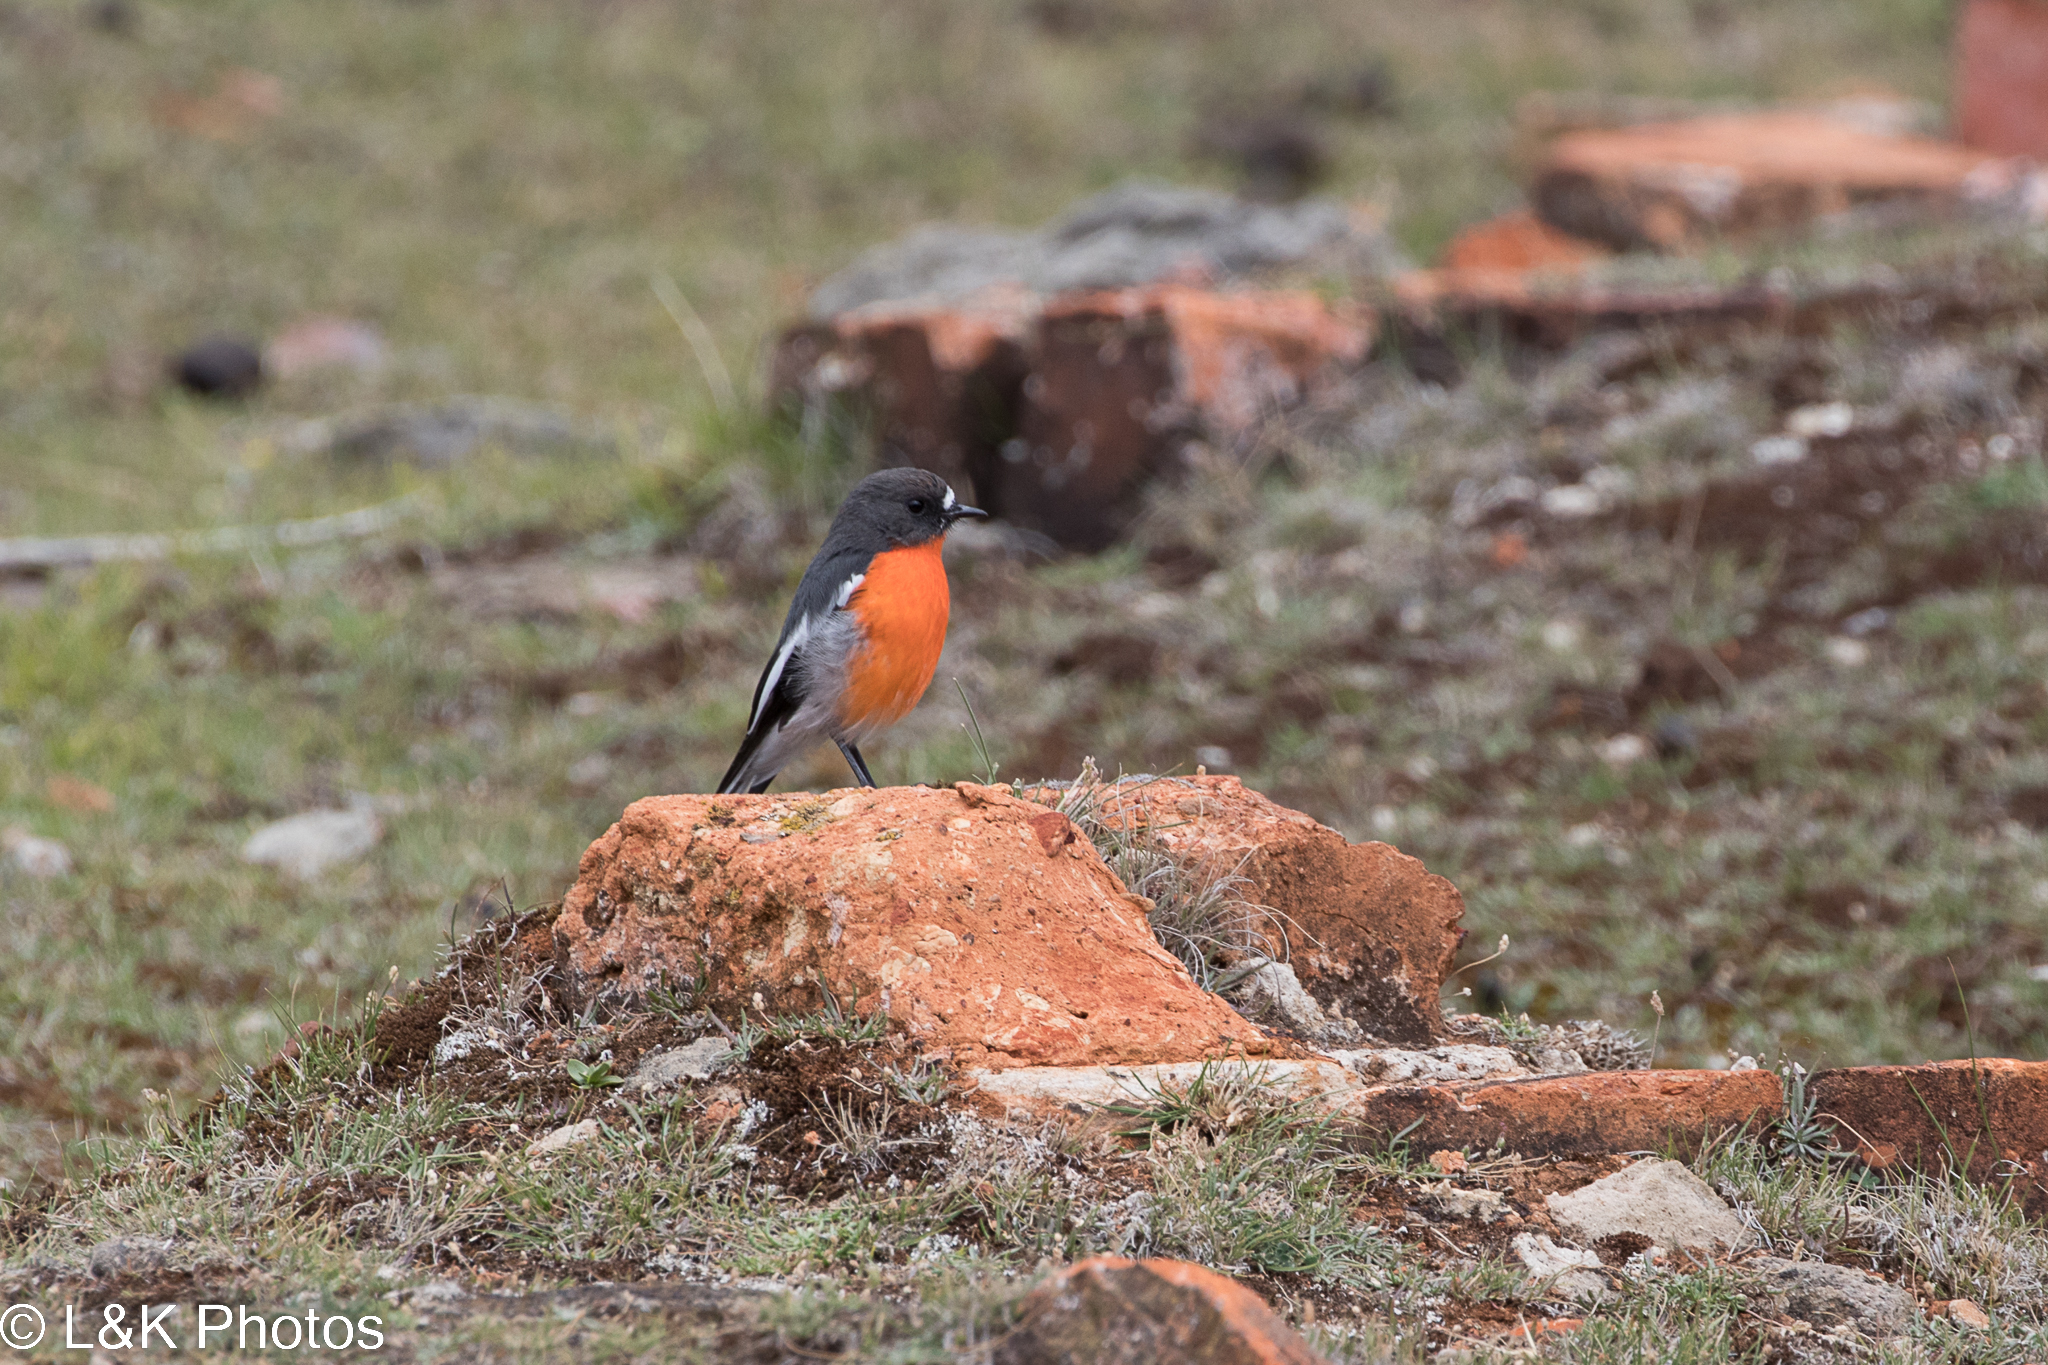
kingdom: Animalia
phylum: Chordata
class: Aves
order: Passeriformes
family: Petroicidae
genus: Petroica
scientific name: Petroica phoenicea
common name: Flame robin
